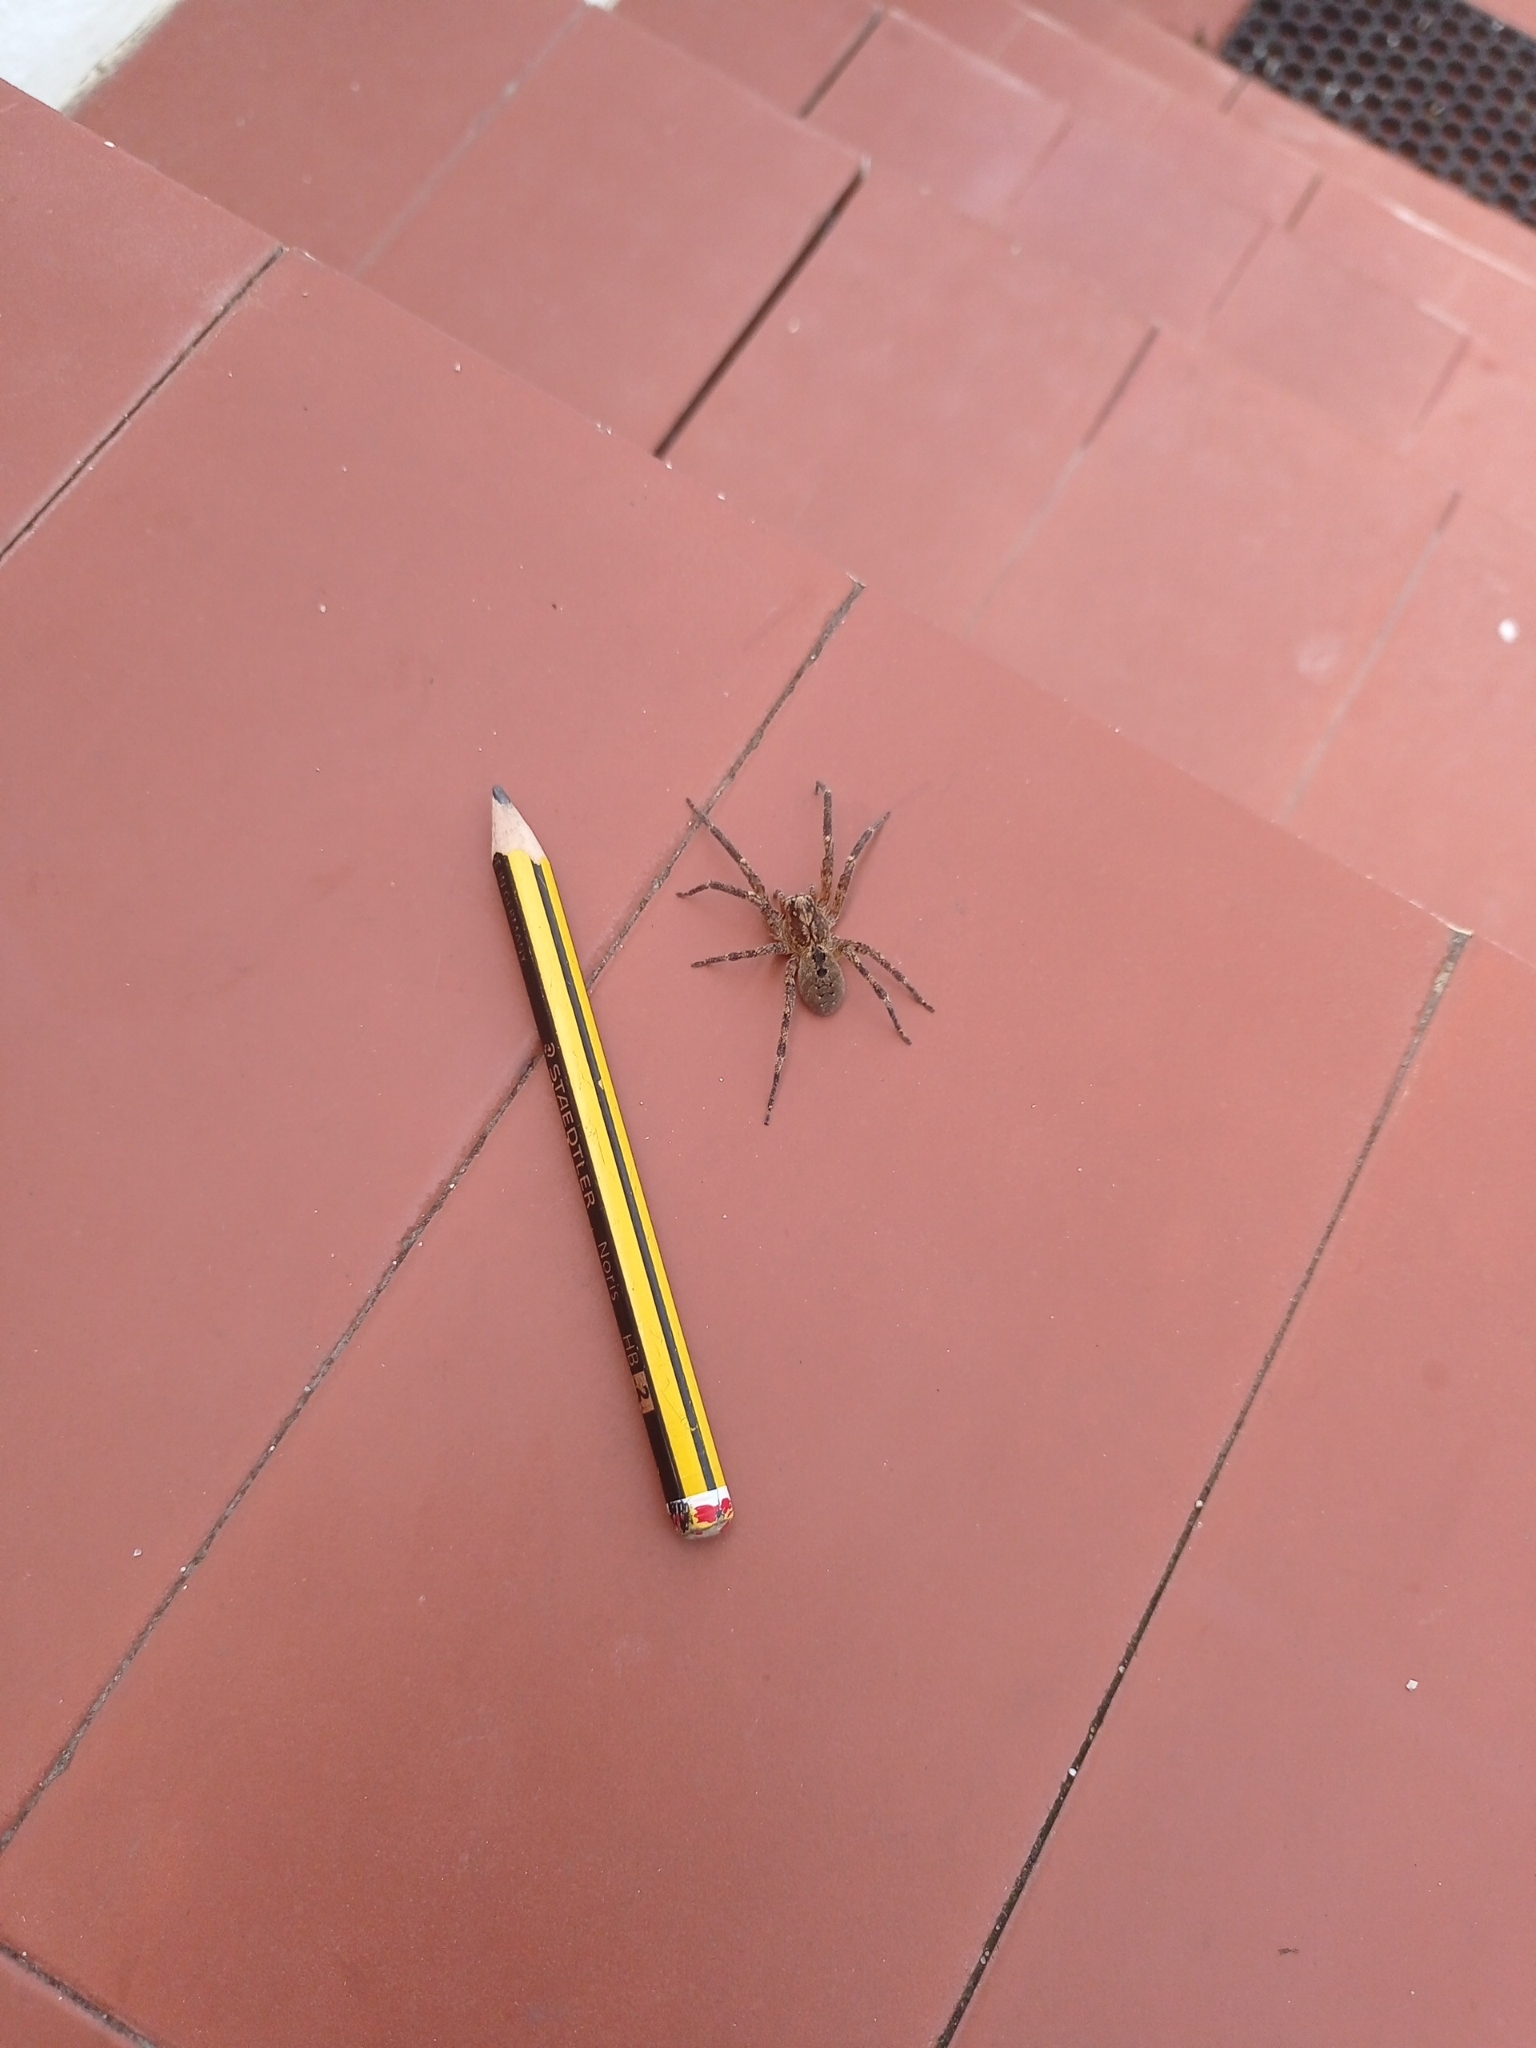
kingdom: Animalia
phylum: Arthropoda
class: Arachnida
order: Araneae
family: Zoropsidae
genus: Zoropsis
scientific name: Zoropsis spinimana
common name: Zoropsid spider
